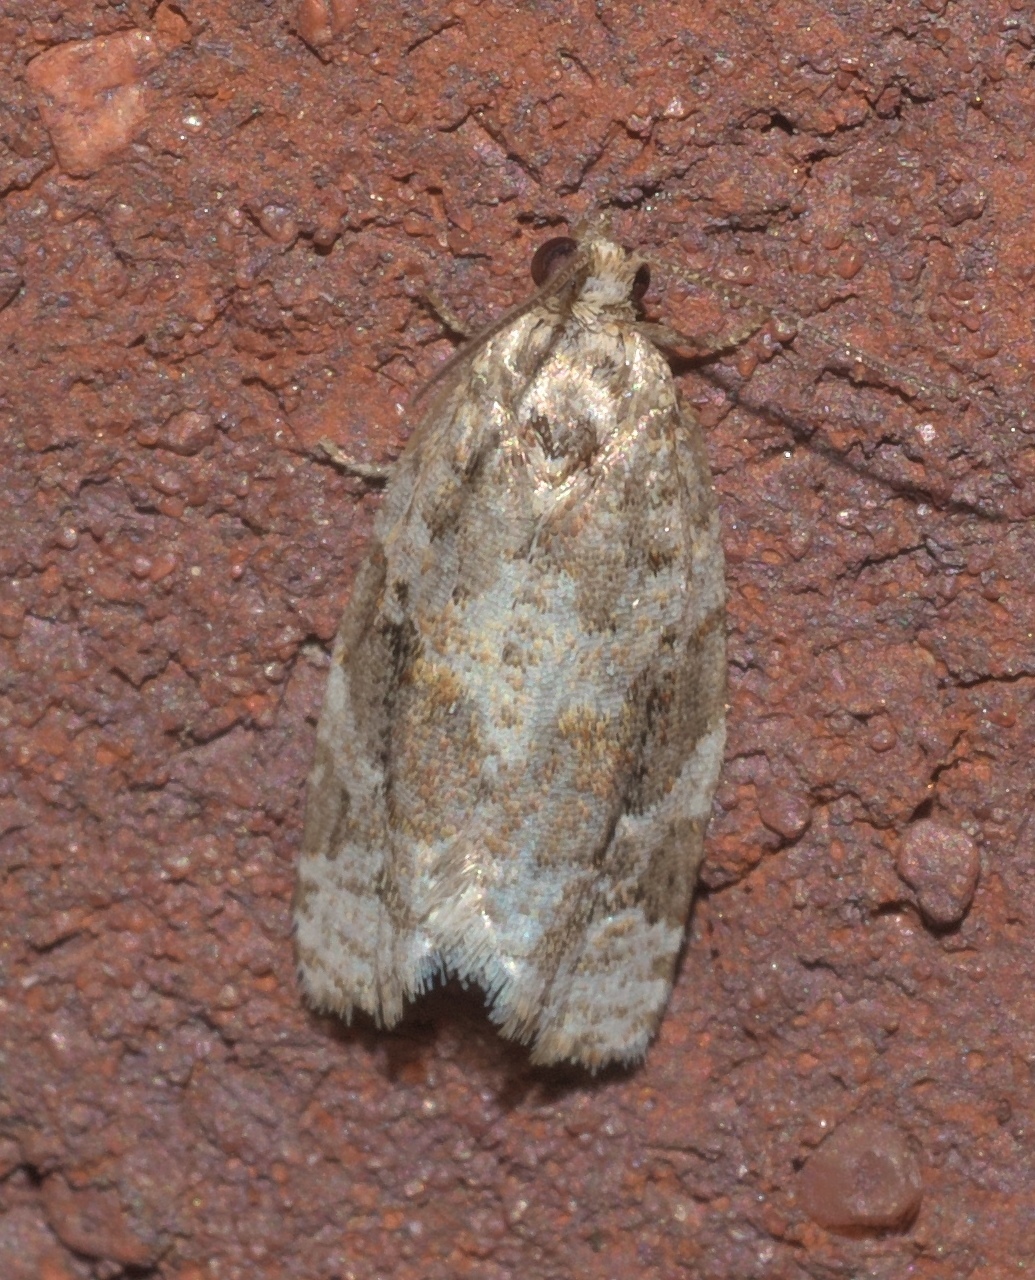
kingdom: Animalia
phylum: Arthropoda
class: Insecta
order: Lepidoptera
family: Tortricidae
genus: Argyrotaenia
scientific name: Argyrotaenia velutinana
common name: Red-banded leafroller moth
